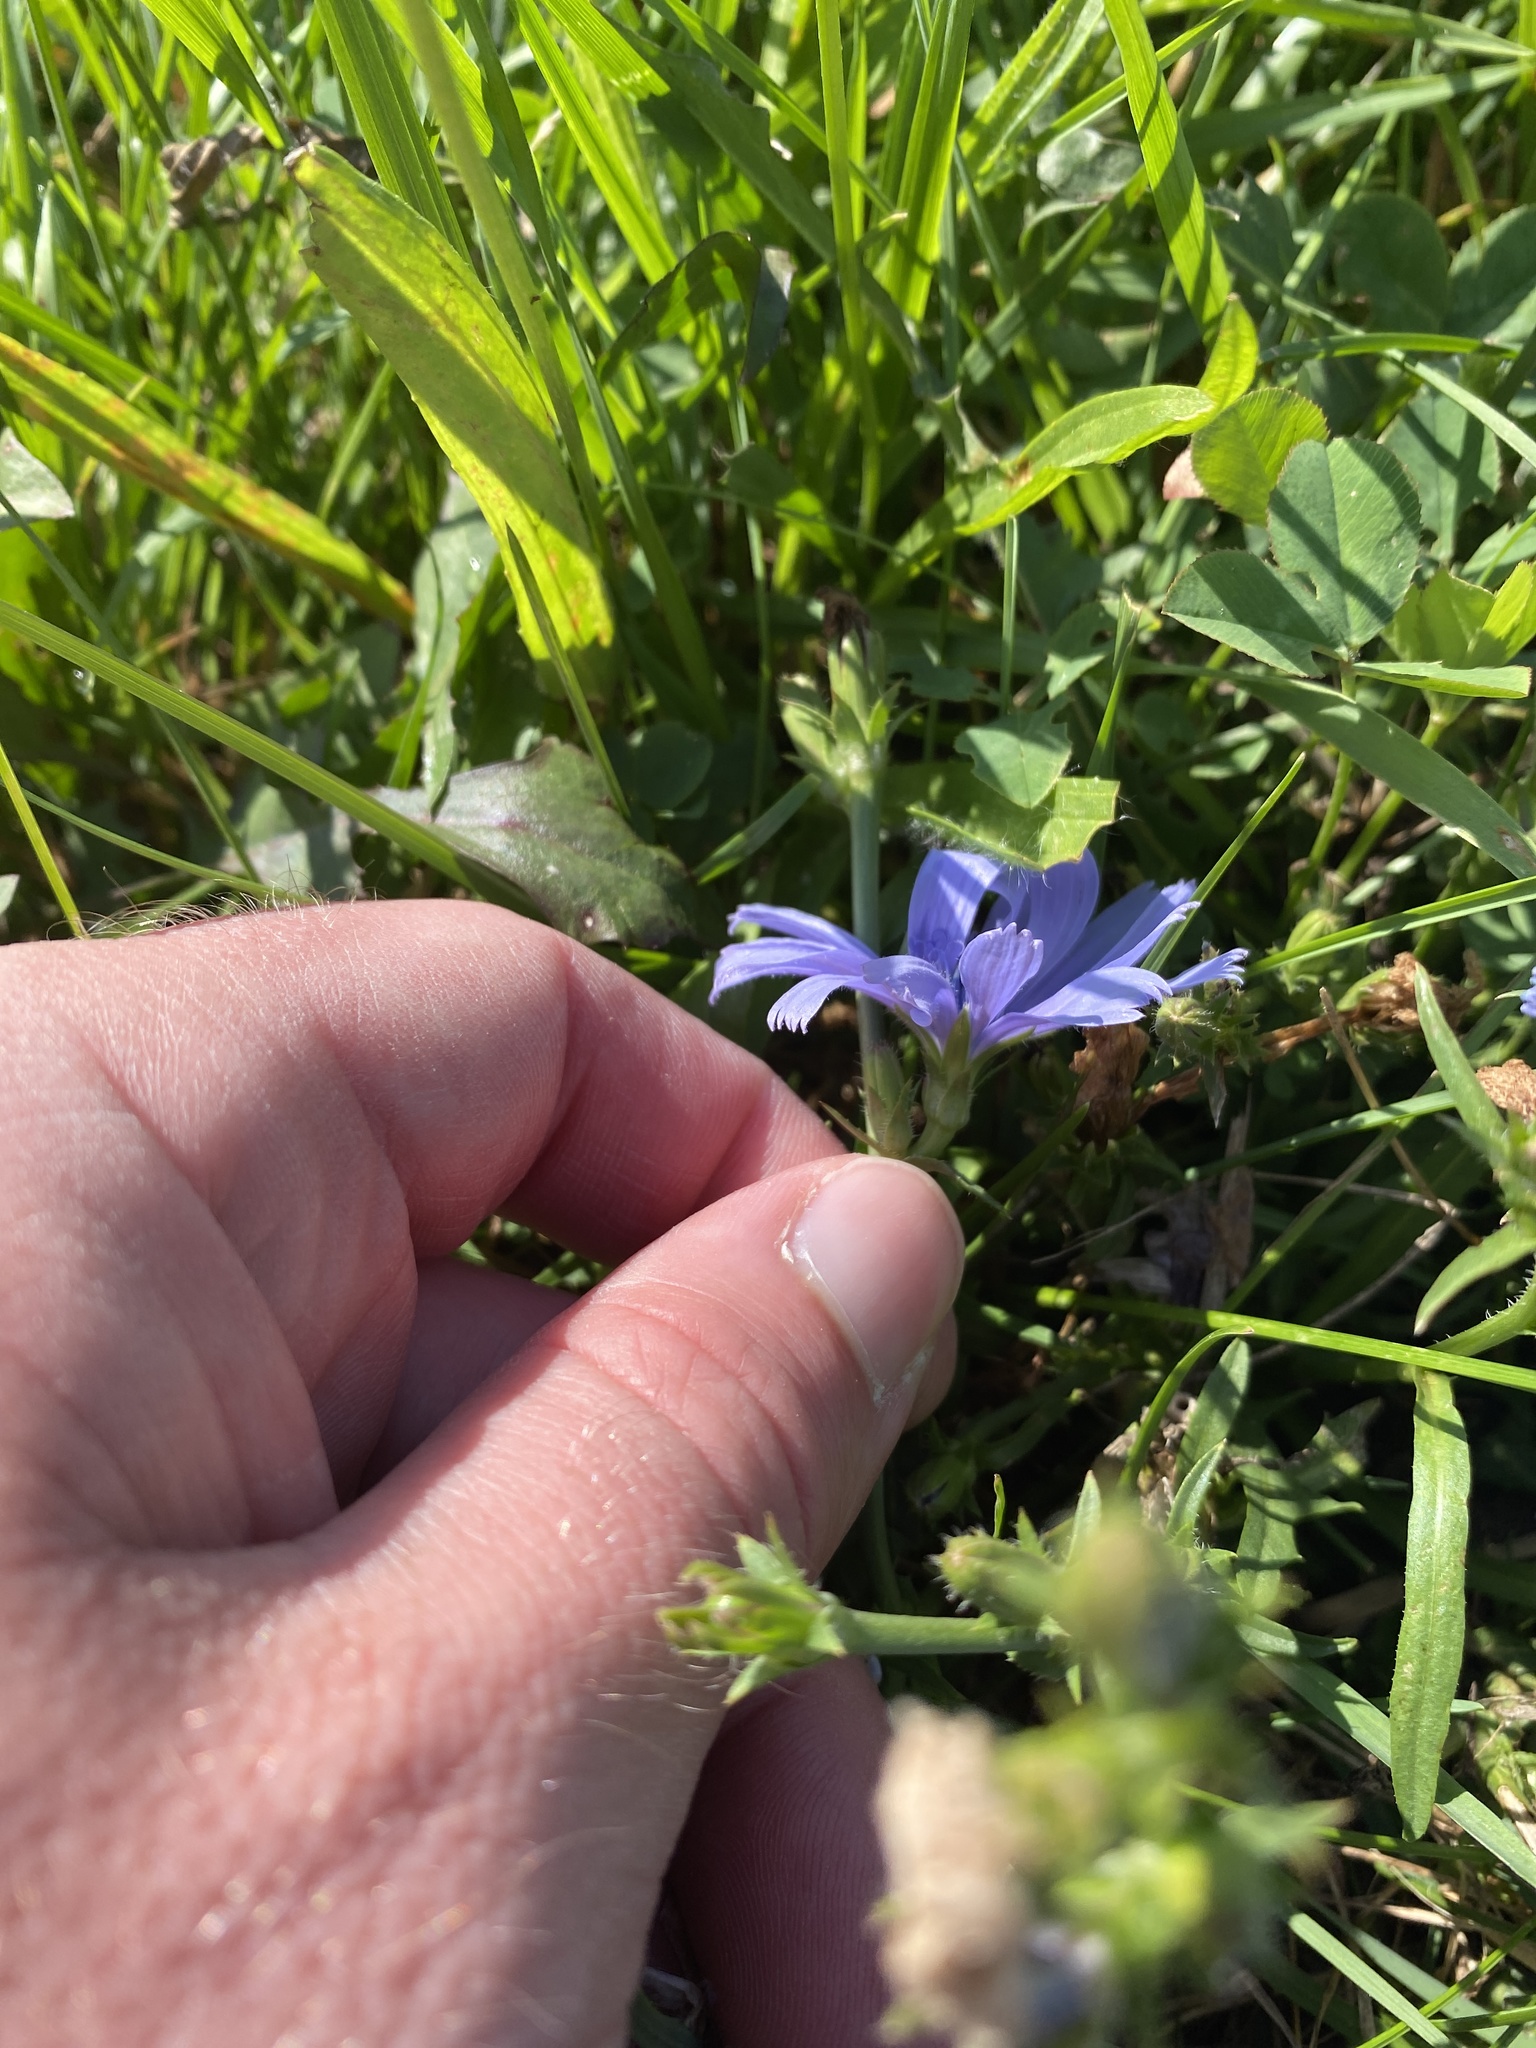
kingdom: Plantae
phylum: Tracheophyta
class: Magnoliopsida
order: Asterales
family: Asteraceae
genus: Cichorium
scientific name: Cichorium intybus
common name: Chicory
